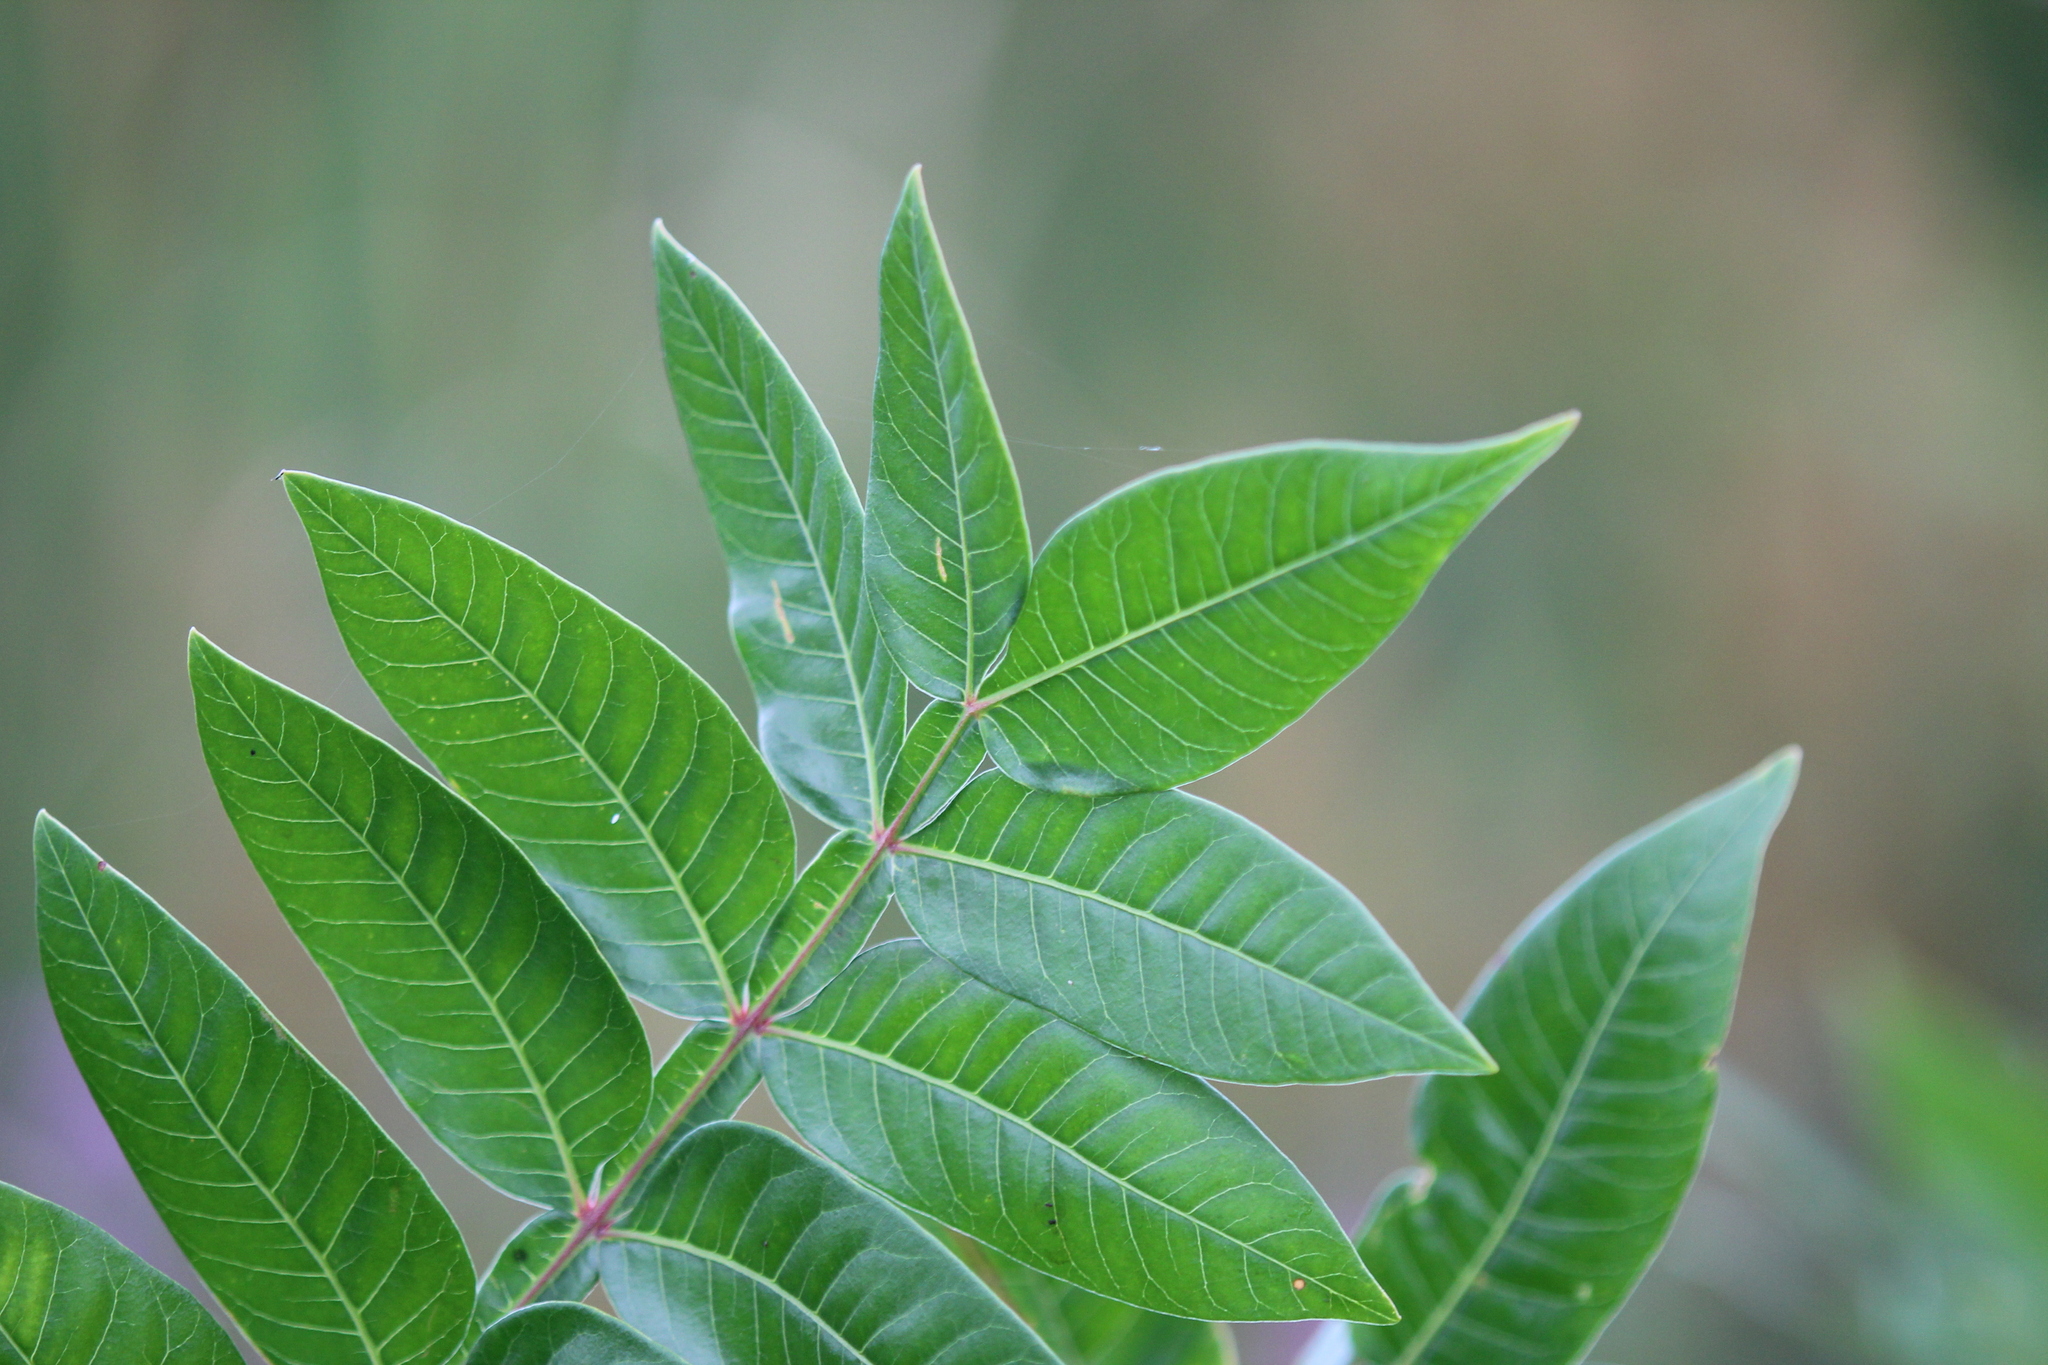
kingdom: Plantae
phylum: Tracheophyta
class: Magnoliopsida
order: Sapindales
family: Anacardiaceae
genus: Rhus
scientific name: Rhus copallina
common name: Shining sumac
